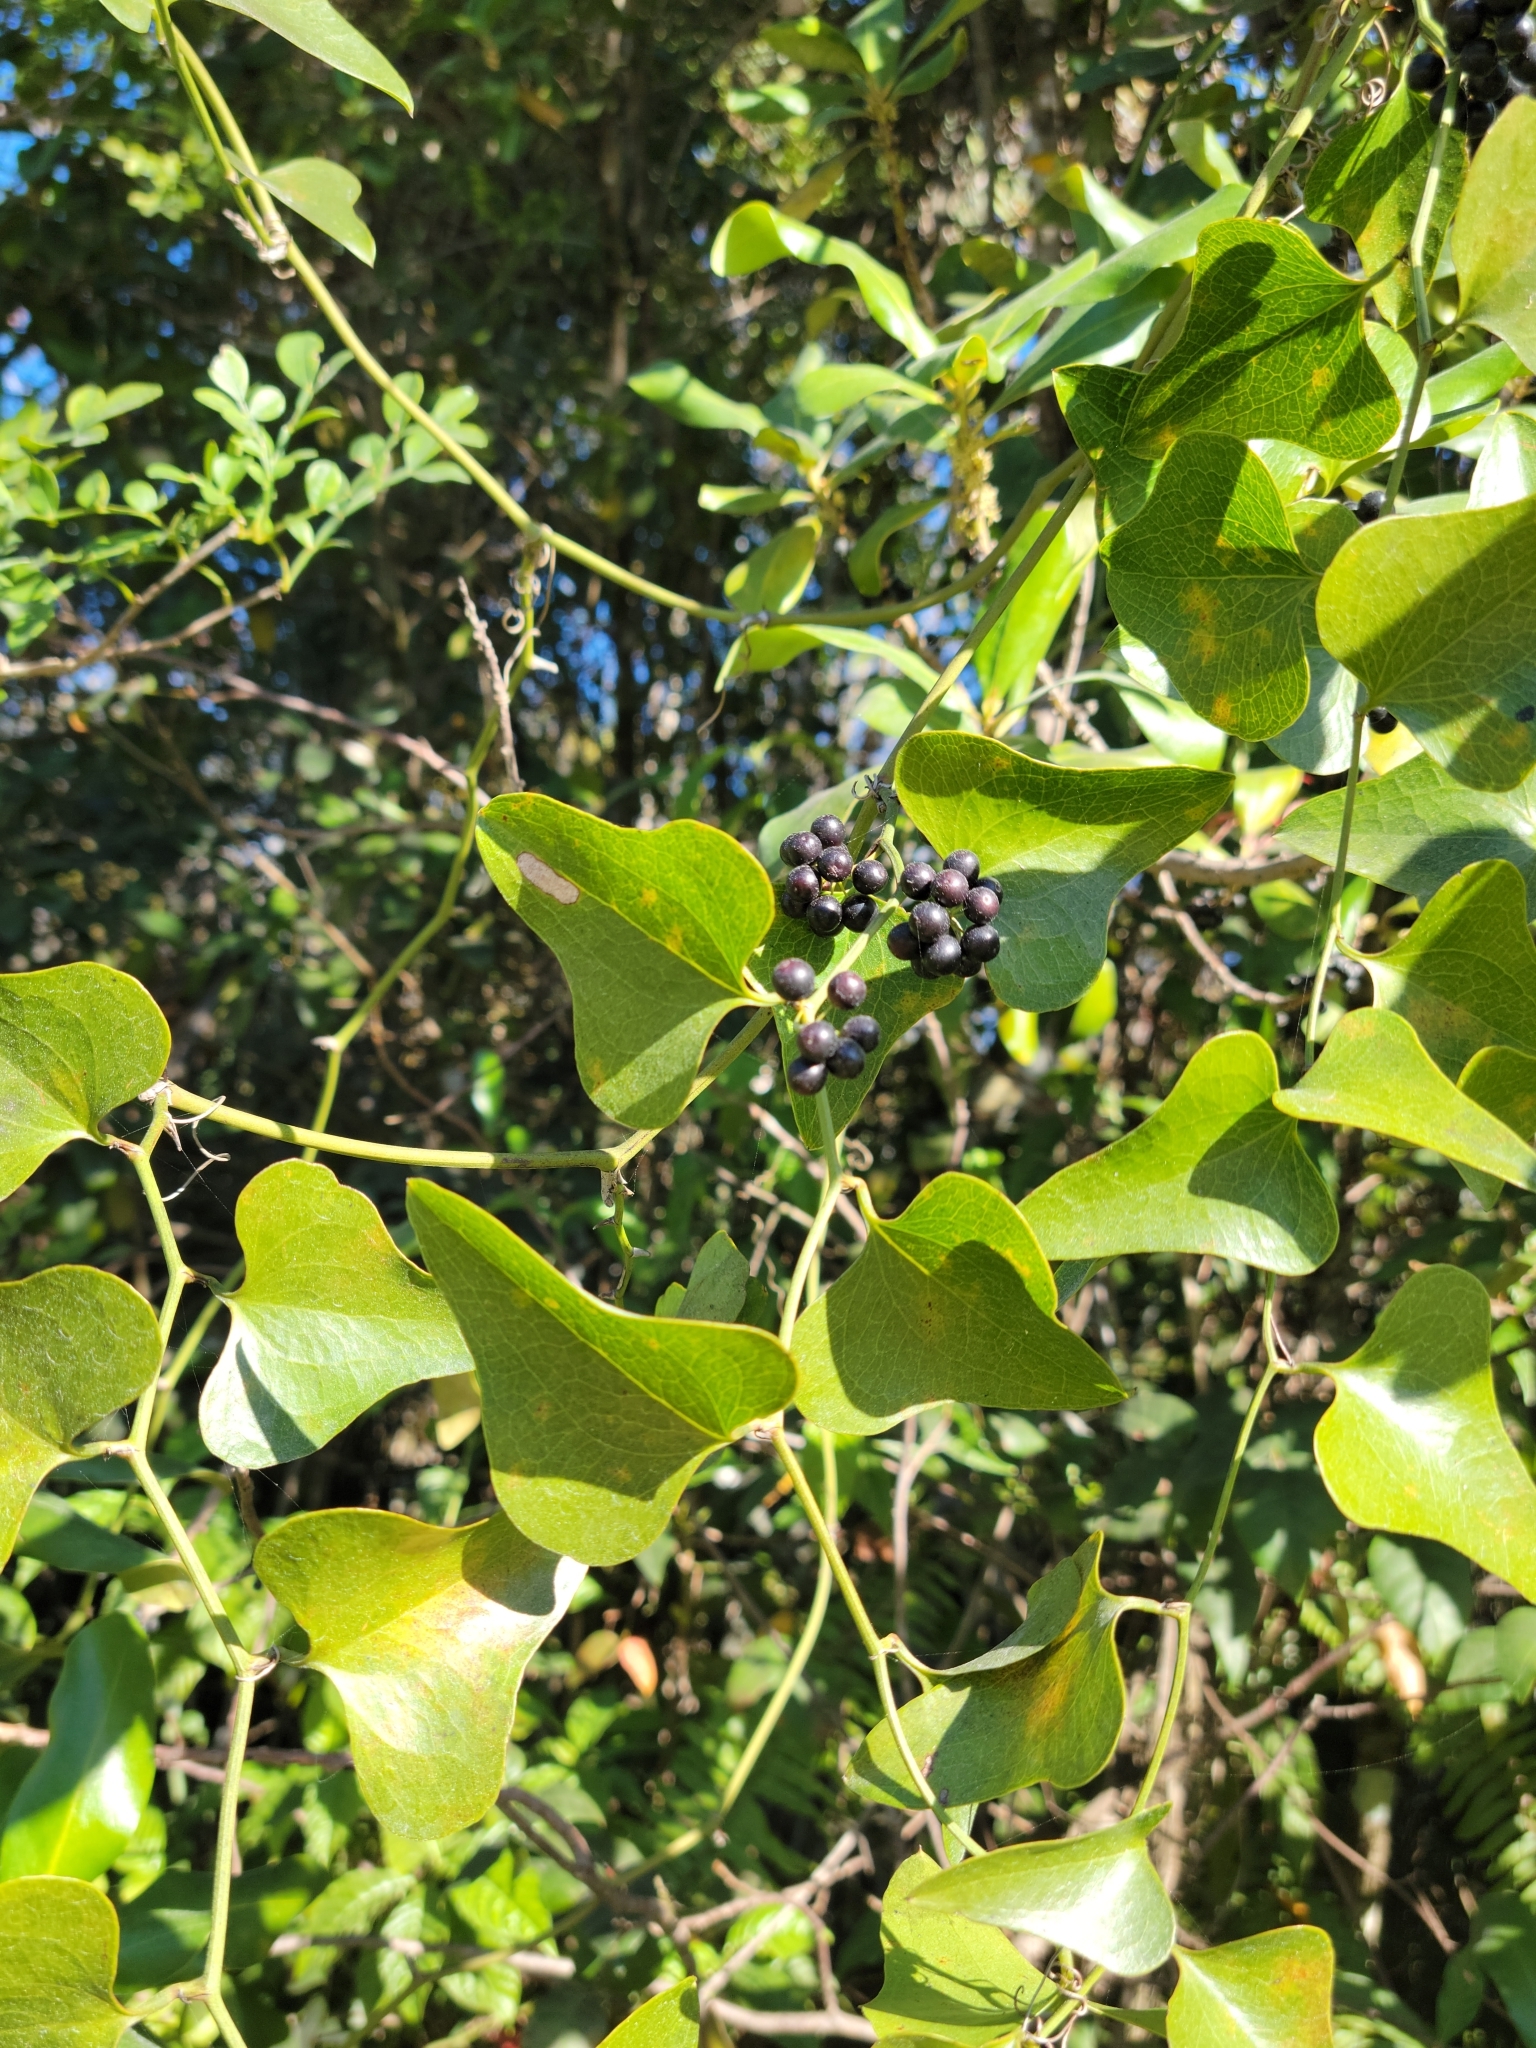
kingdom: Plantae
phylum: Tracheophyta
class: Liliopsida
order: Liliales
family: Smilacaceae
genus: Smilax
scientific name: Smilax bona-nox
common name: Catbrier
